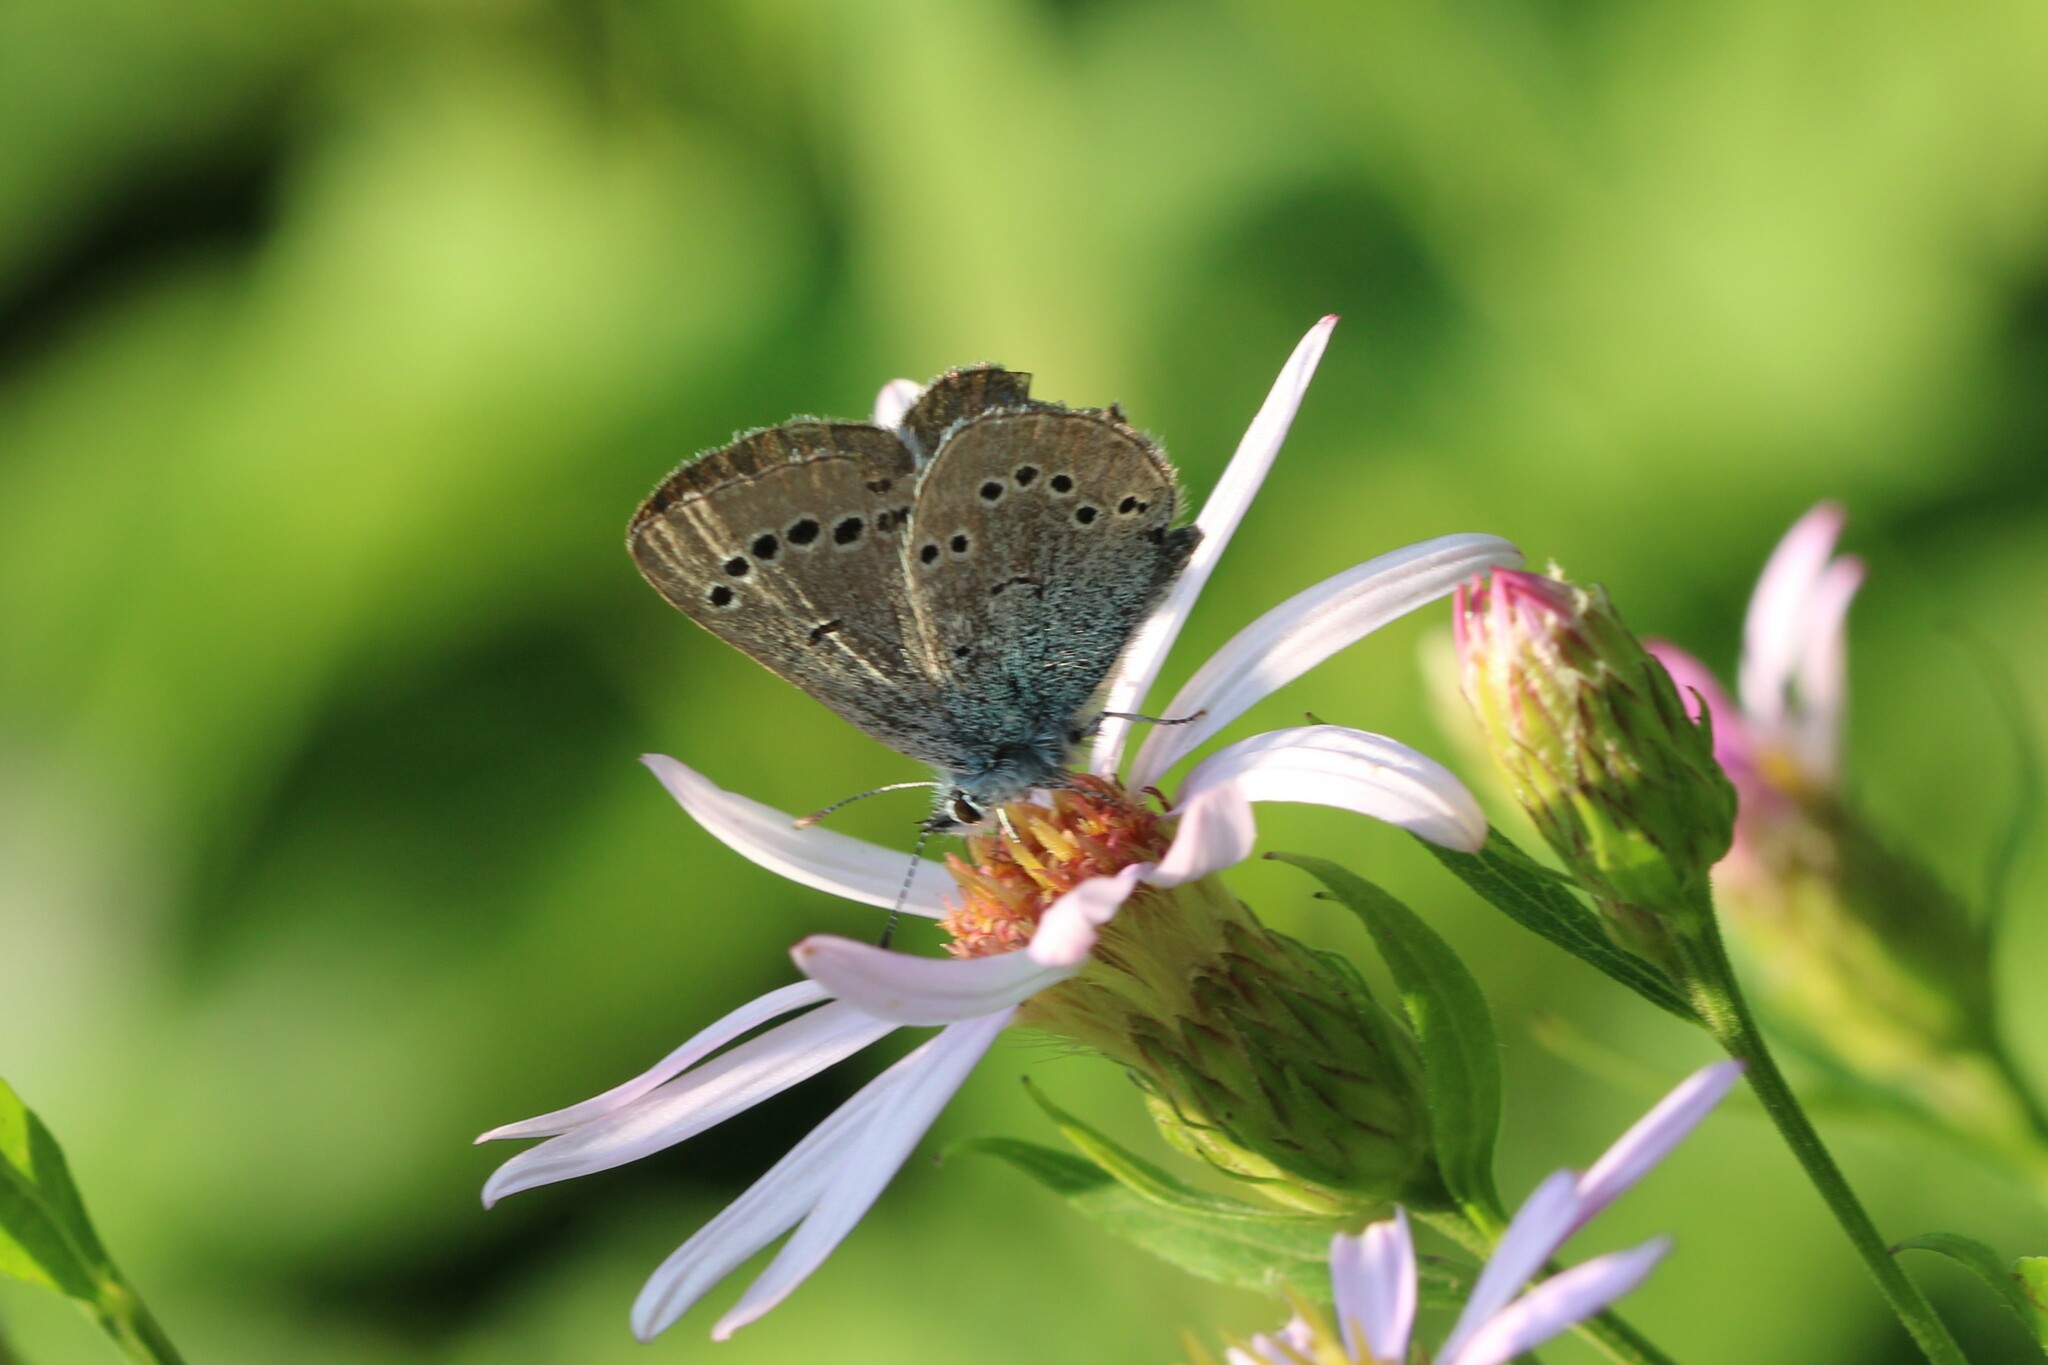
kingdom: Animalia
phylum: Arthropoda
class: Insecta
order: Lepidoptera
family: Lycaenidae
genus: Glaucopsyche
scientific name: Glaucopsyche lygdamus
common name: Silvery blue
